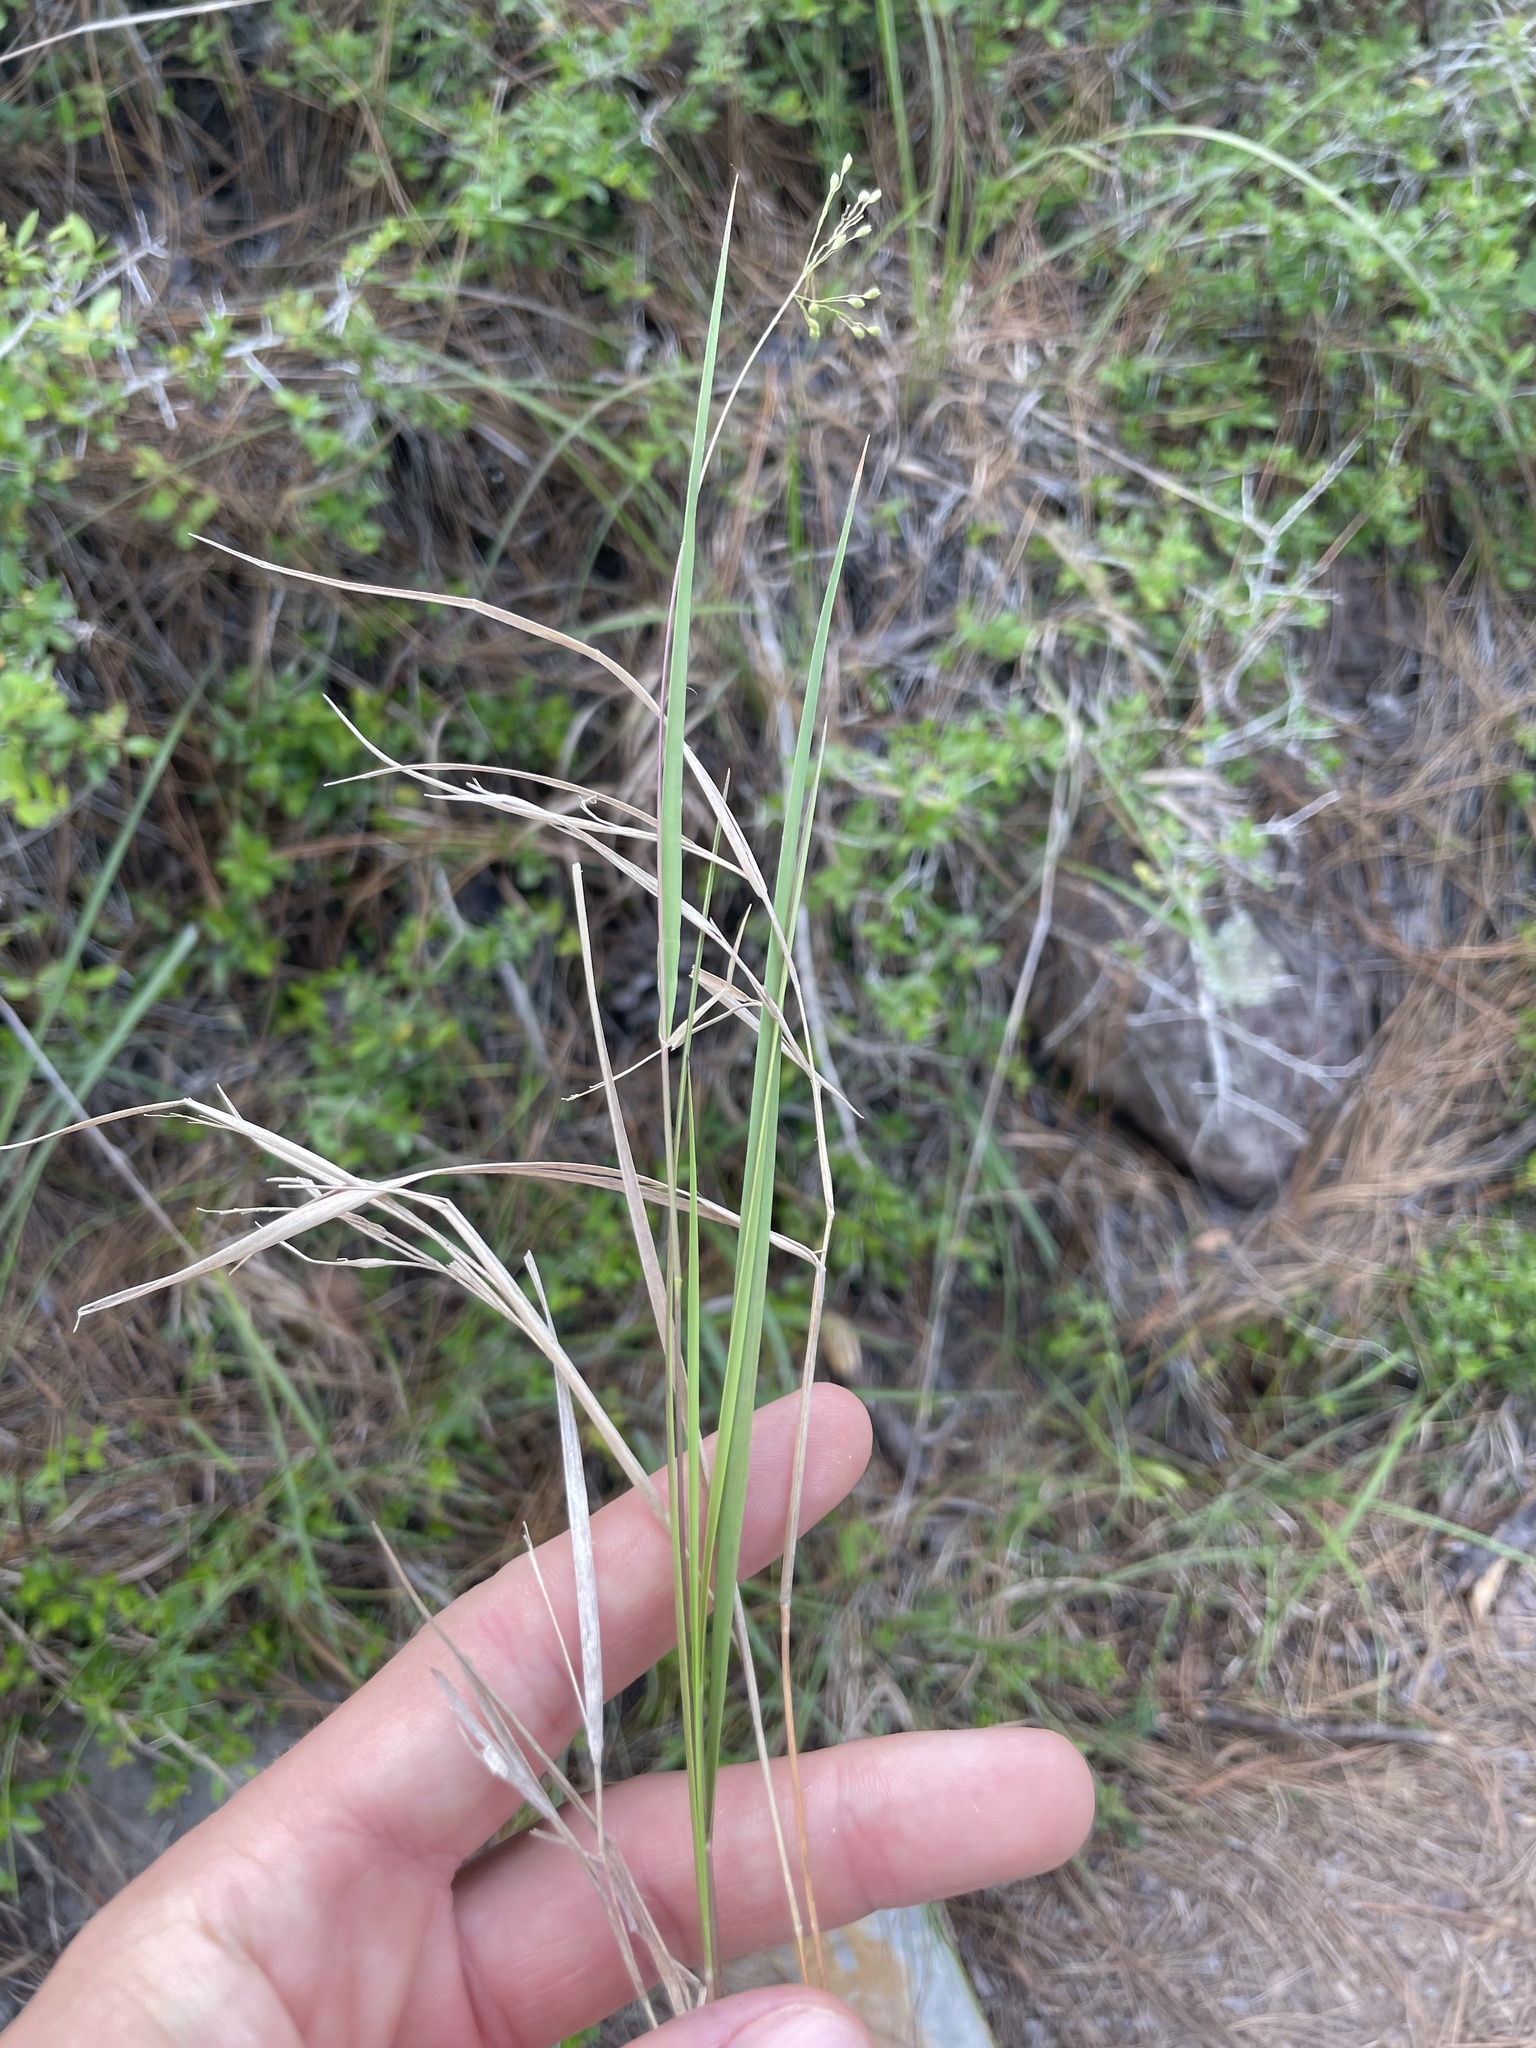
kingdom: Plantae
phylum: Tracheophyta
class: Liliopsida
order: Poales
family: Poaceae
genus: Dichanthelium
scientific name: Dichanthelium angustifolium
